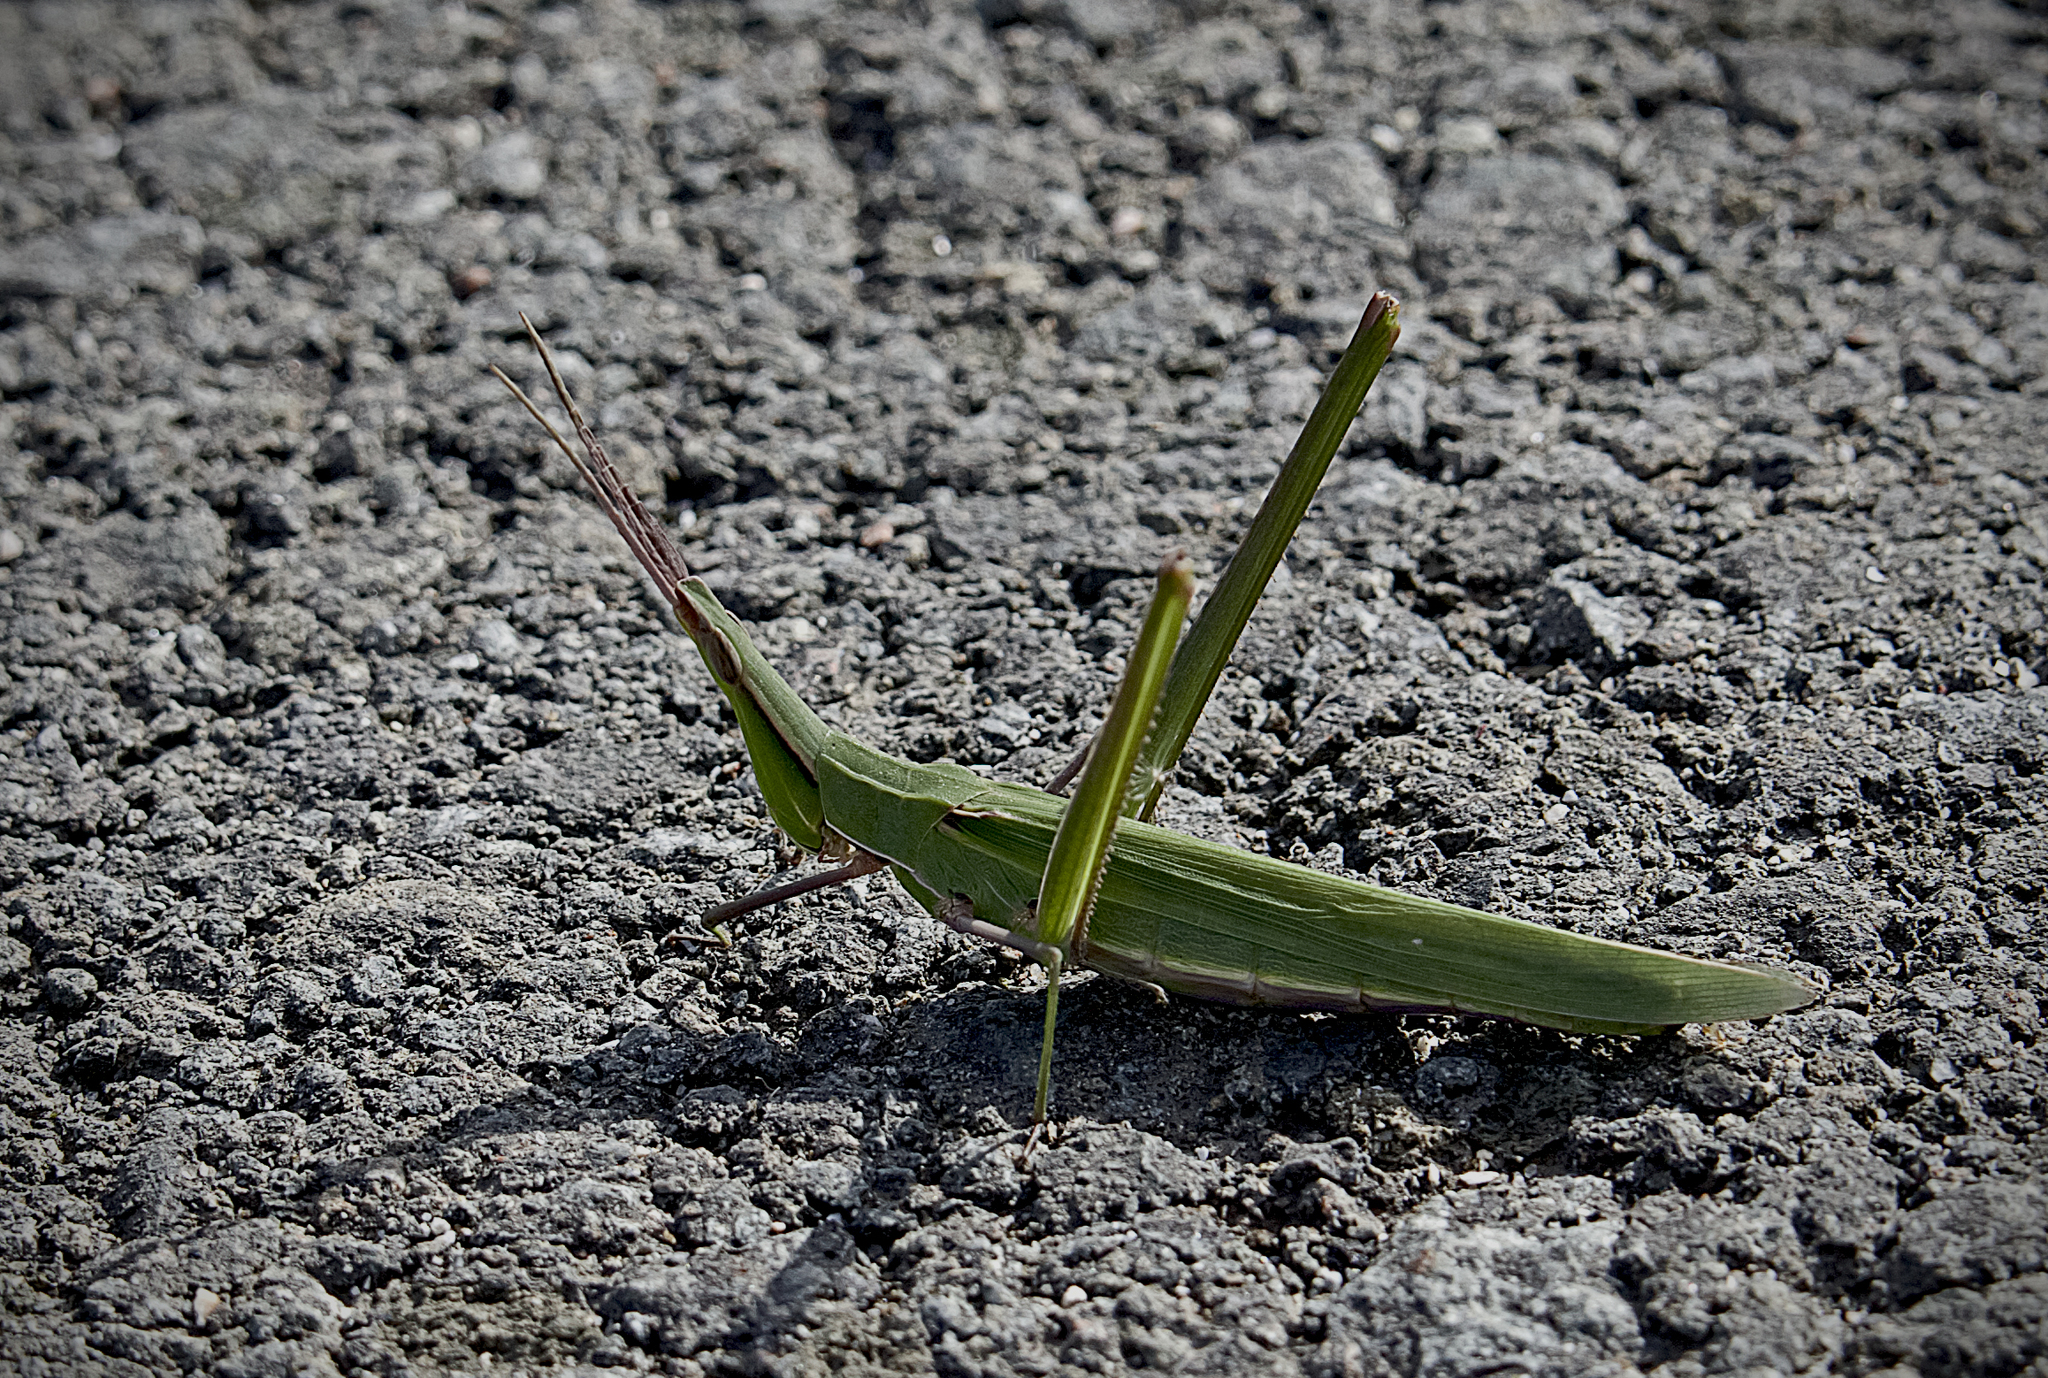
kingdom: Animalia
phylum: Arthropoda
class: Insecta
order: Orthoptera
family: Acrididae
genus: Acrida
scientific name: Acrida ungarica
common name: Common cone-headed grasshopper
